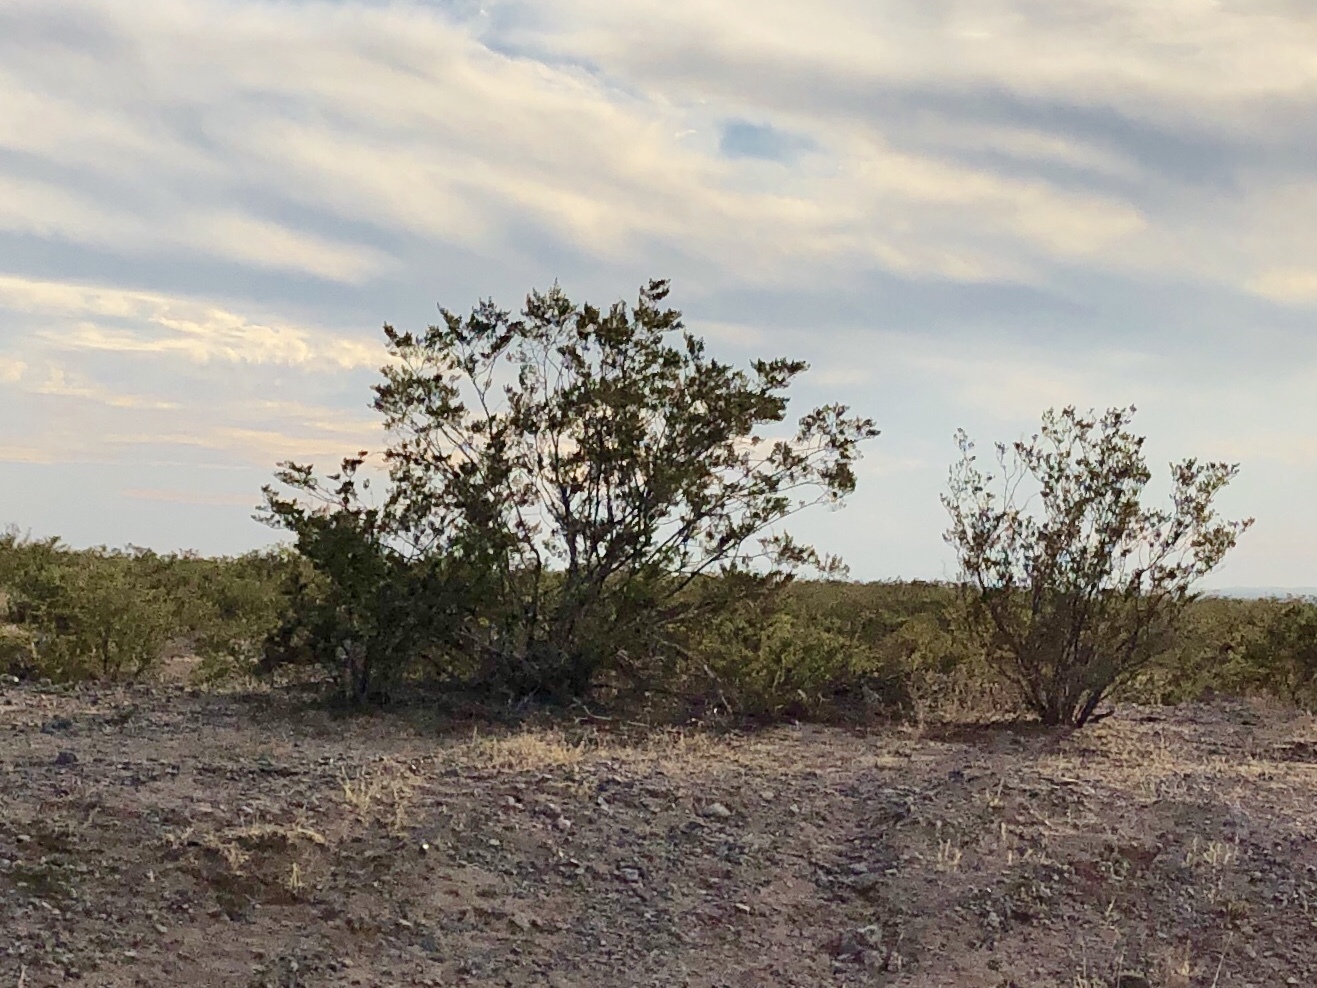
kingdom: Plantae
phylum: Tracheophyta
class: Magnoliopsida
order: Zygophyllales
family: Zygophyllaceae
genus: Larrea
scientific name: Larrea tridentata
